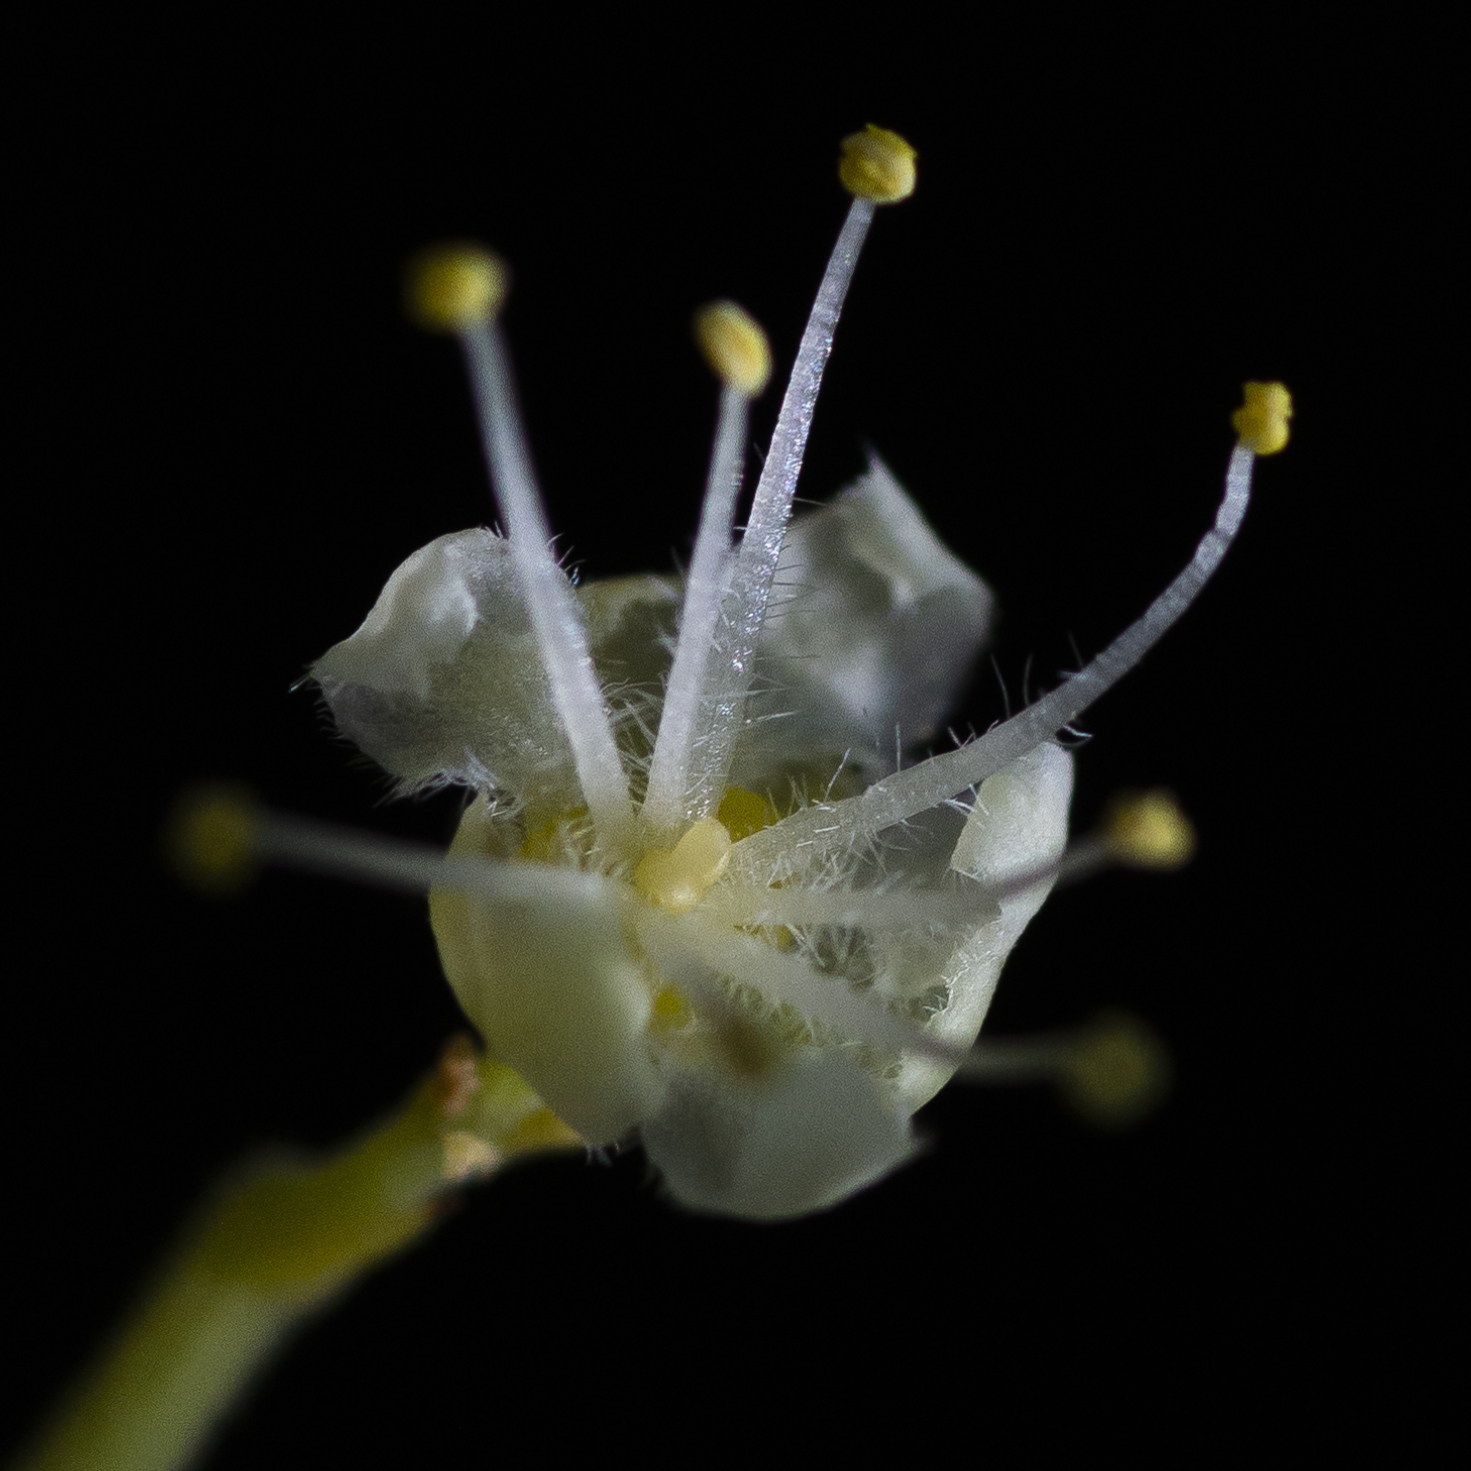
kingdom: Plantae
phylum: Tracheophyta
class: Magnoliopsida
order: Sapindales
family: Sapindaceae
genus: Sapindus
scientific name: Sapindus drummondii
